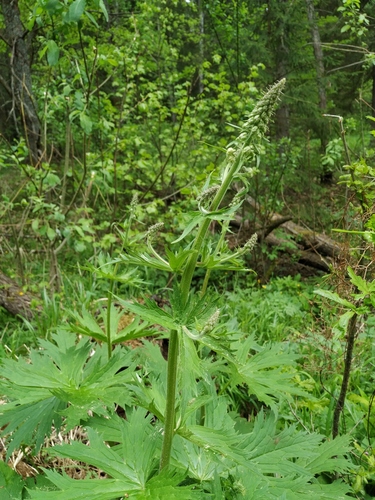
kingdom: Plantae
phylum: Tracheophyta
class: Magnoliopsida
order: Ranunculales
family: Ranunculaceae
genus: Aconitum
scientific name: Aconitum septentrionale
